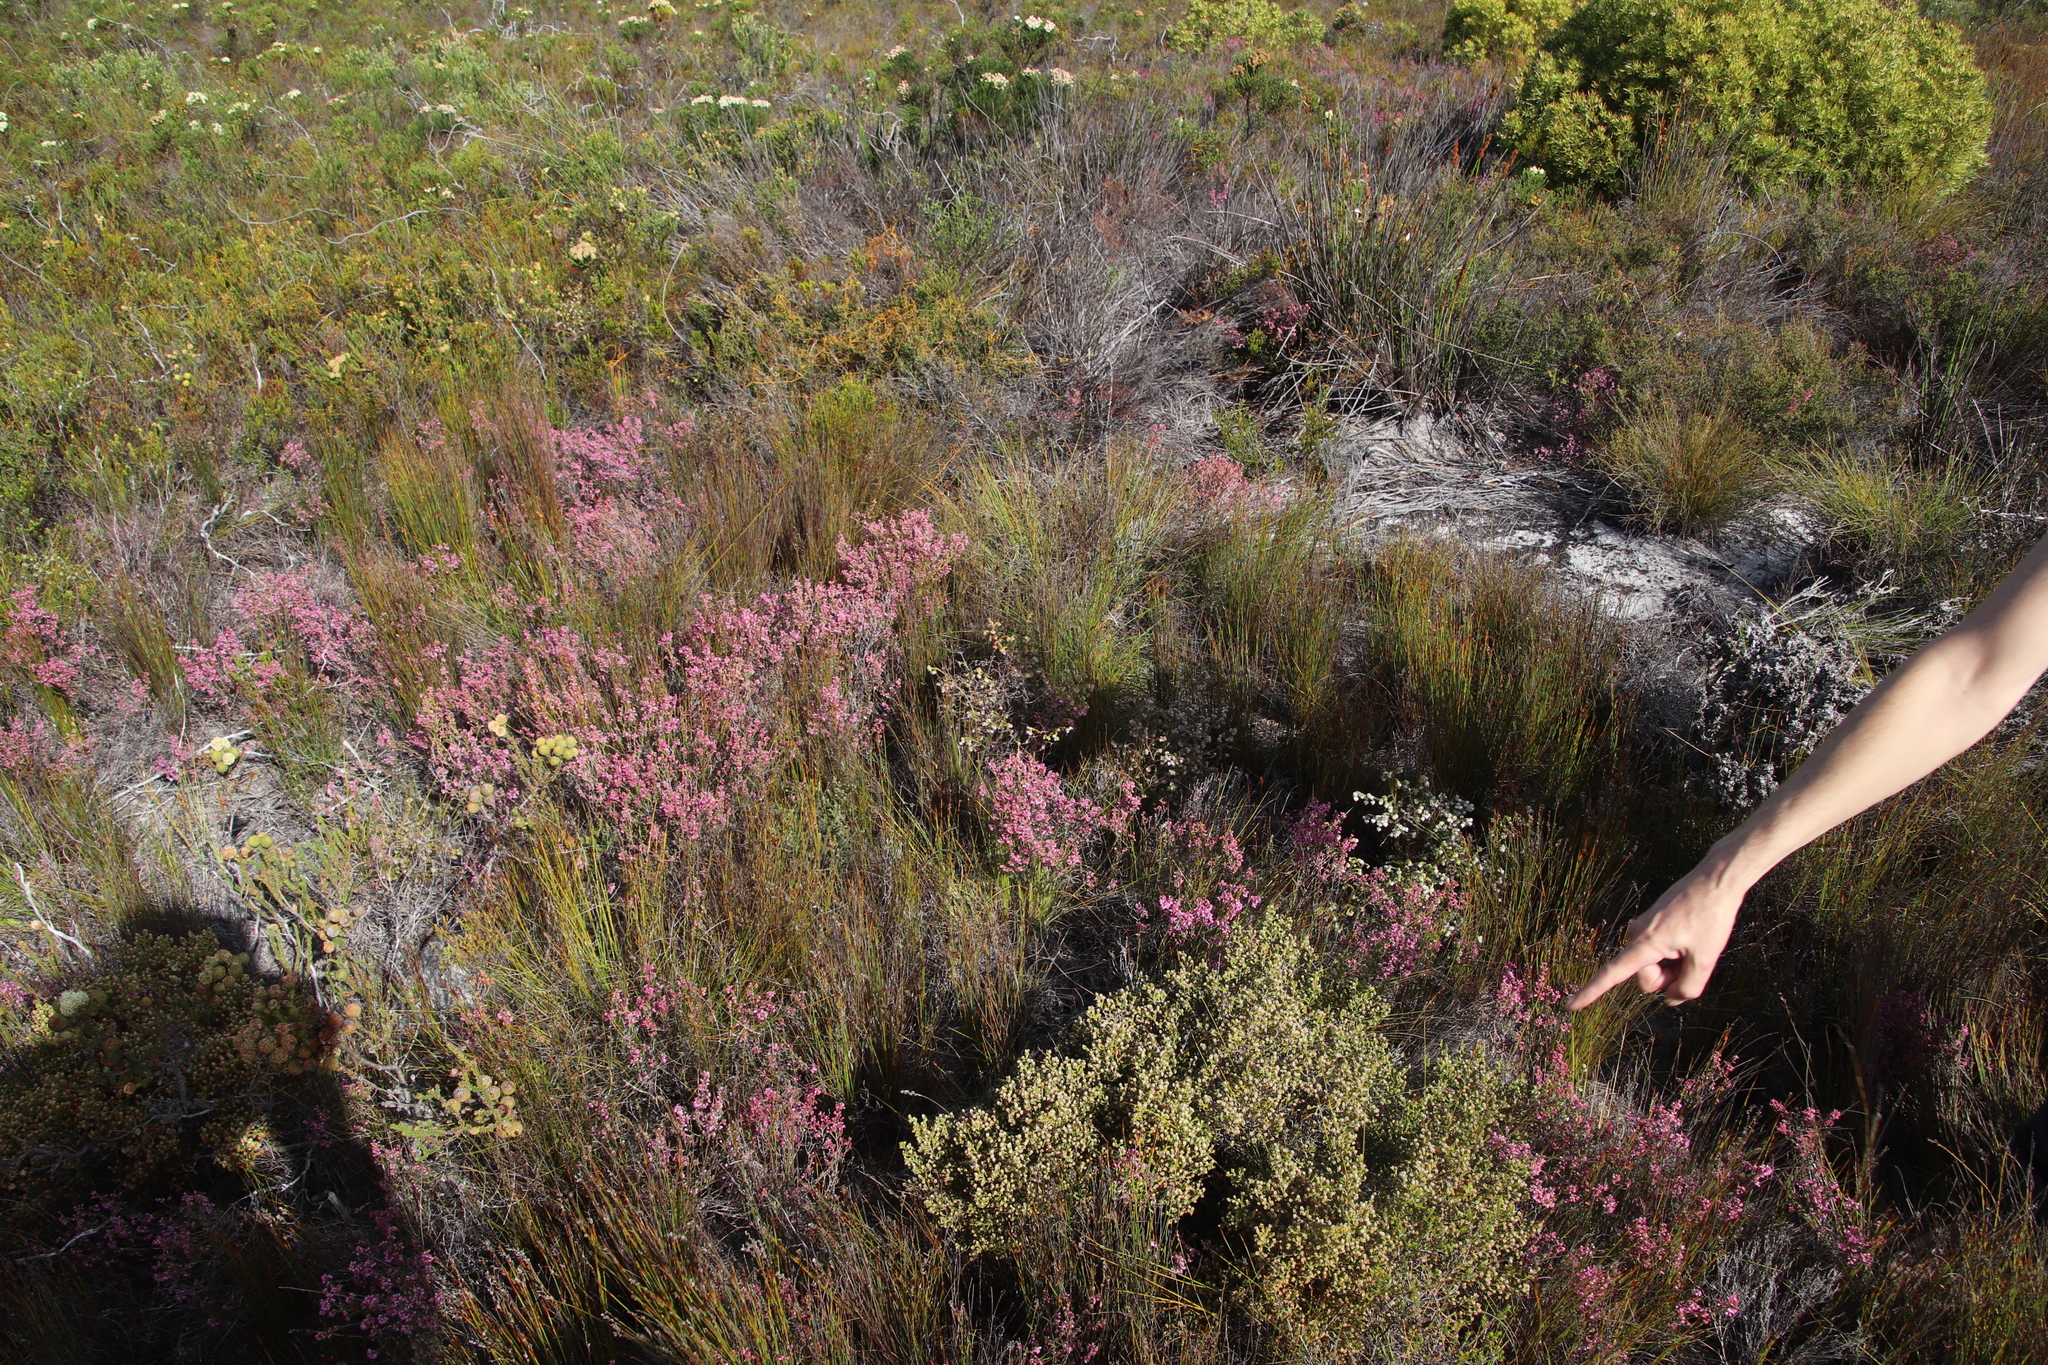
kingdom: Animalia
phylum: Arthropoda
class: Insecta
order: Lepidoptera
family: Lasiocampidae
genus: Eutricha
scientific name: Eutricha bifascia
